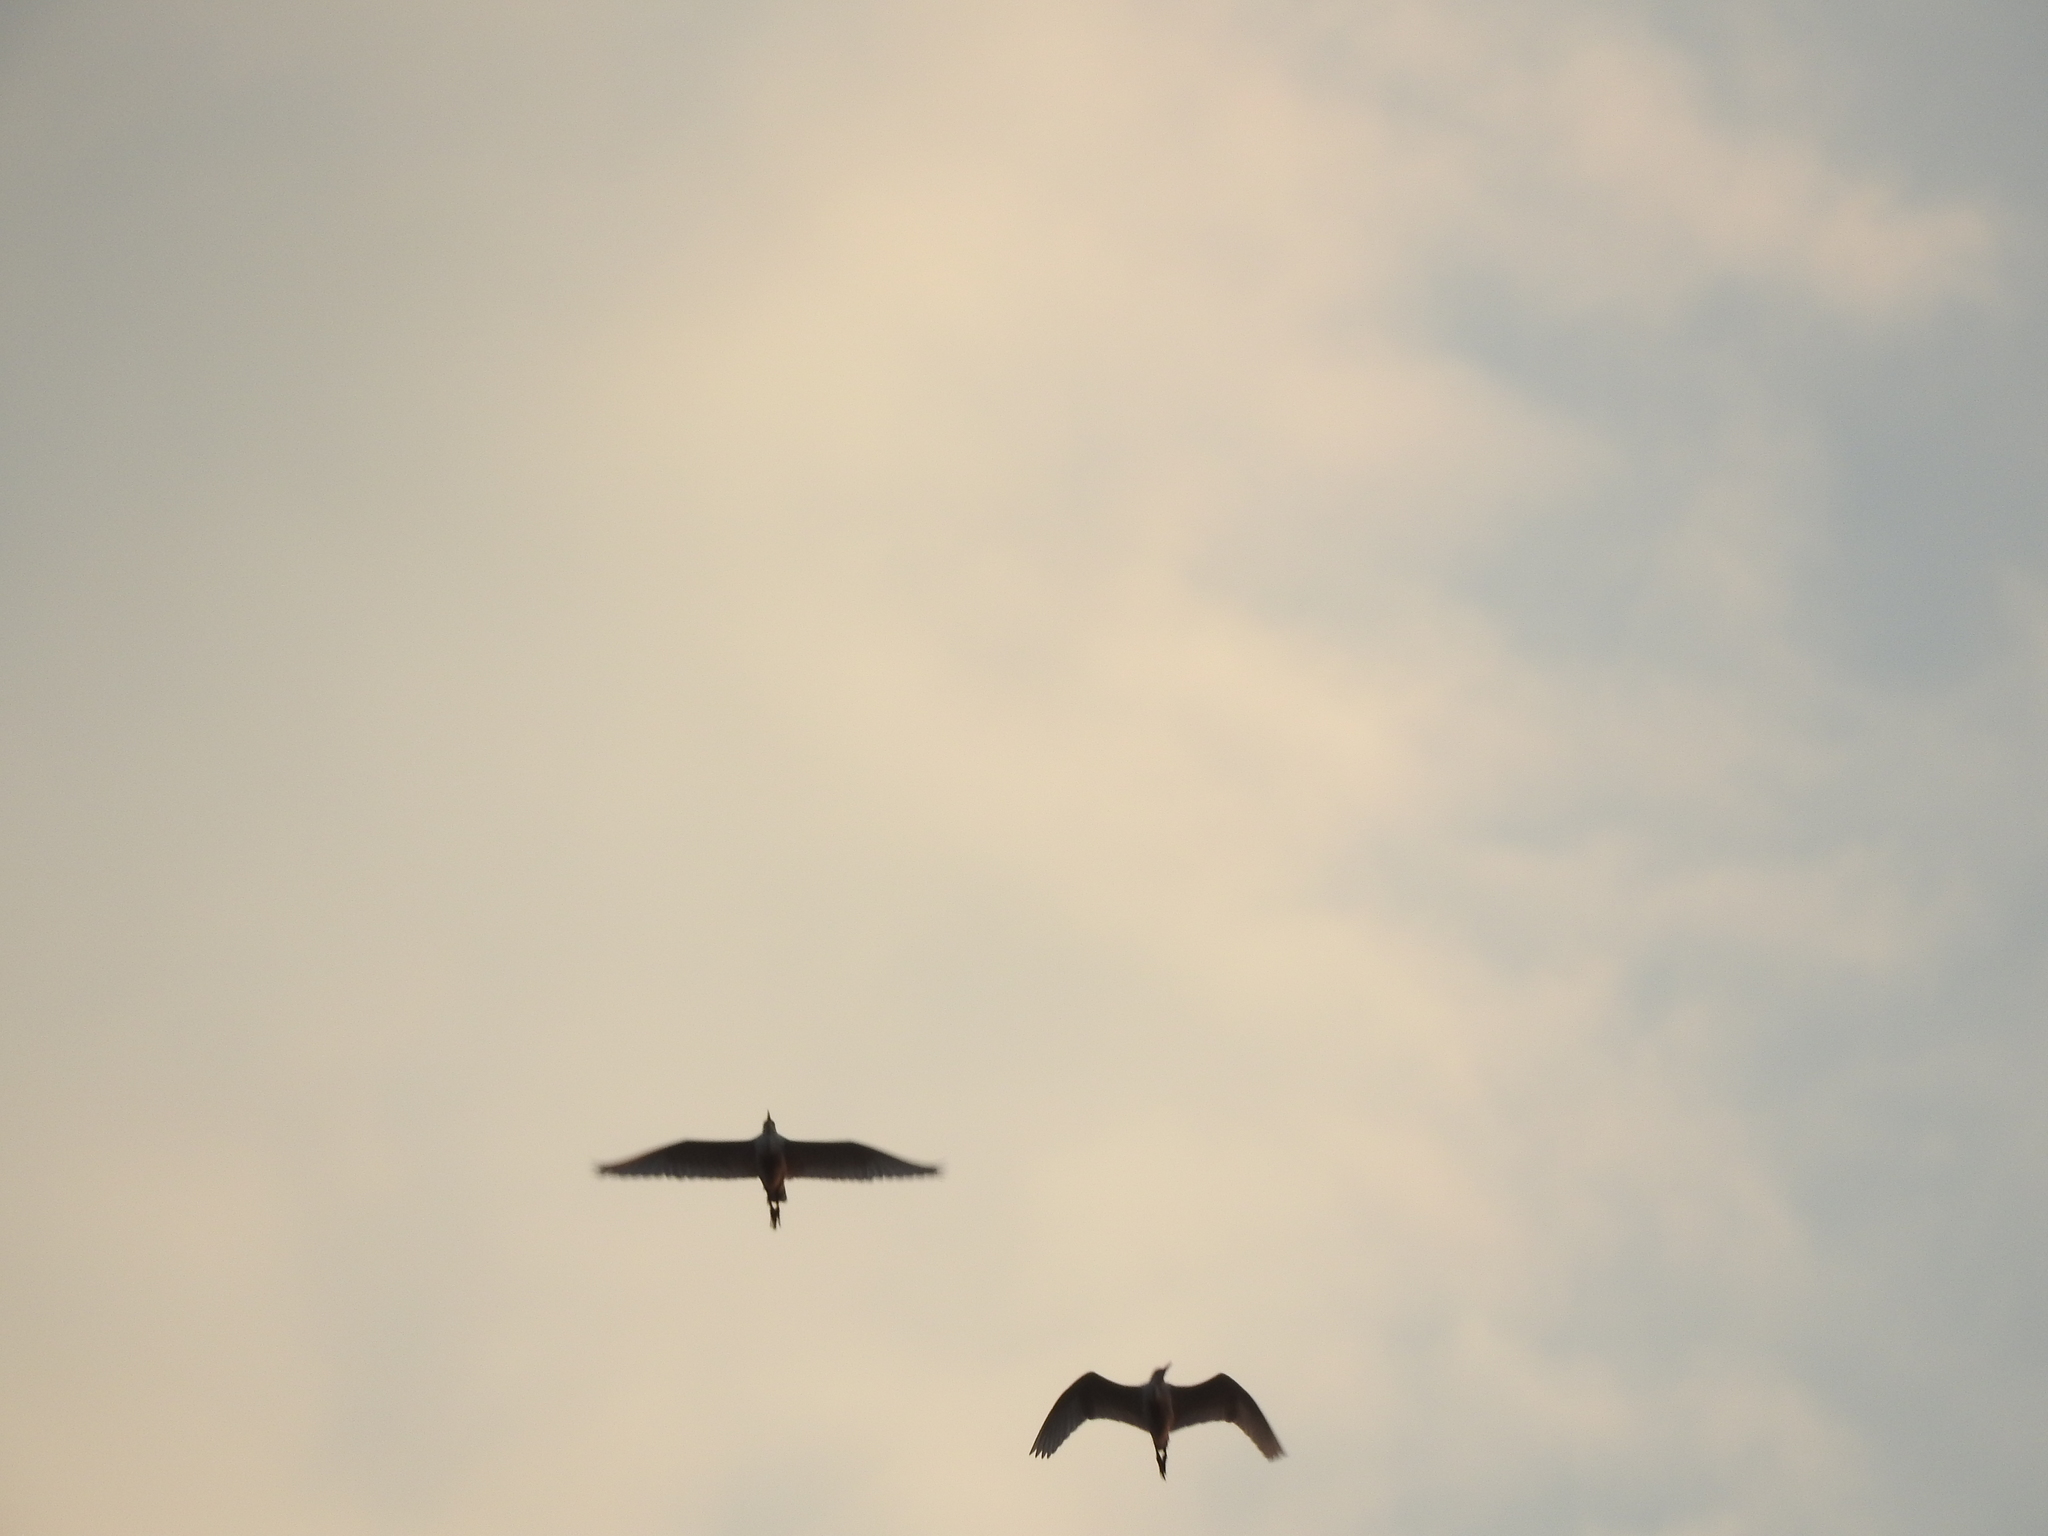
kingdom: Animalia
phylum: Chordata
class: Aves
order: Pelecaniformes
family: Ardeidae
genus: Bubulcus
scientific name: Bubulcus ibis
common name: Cattle egret
